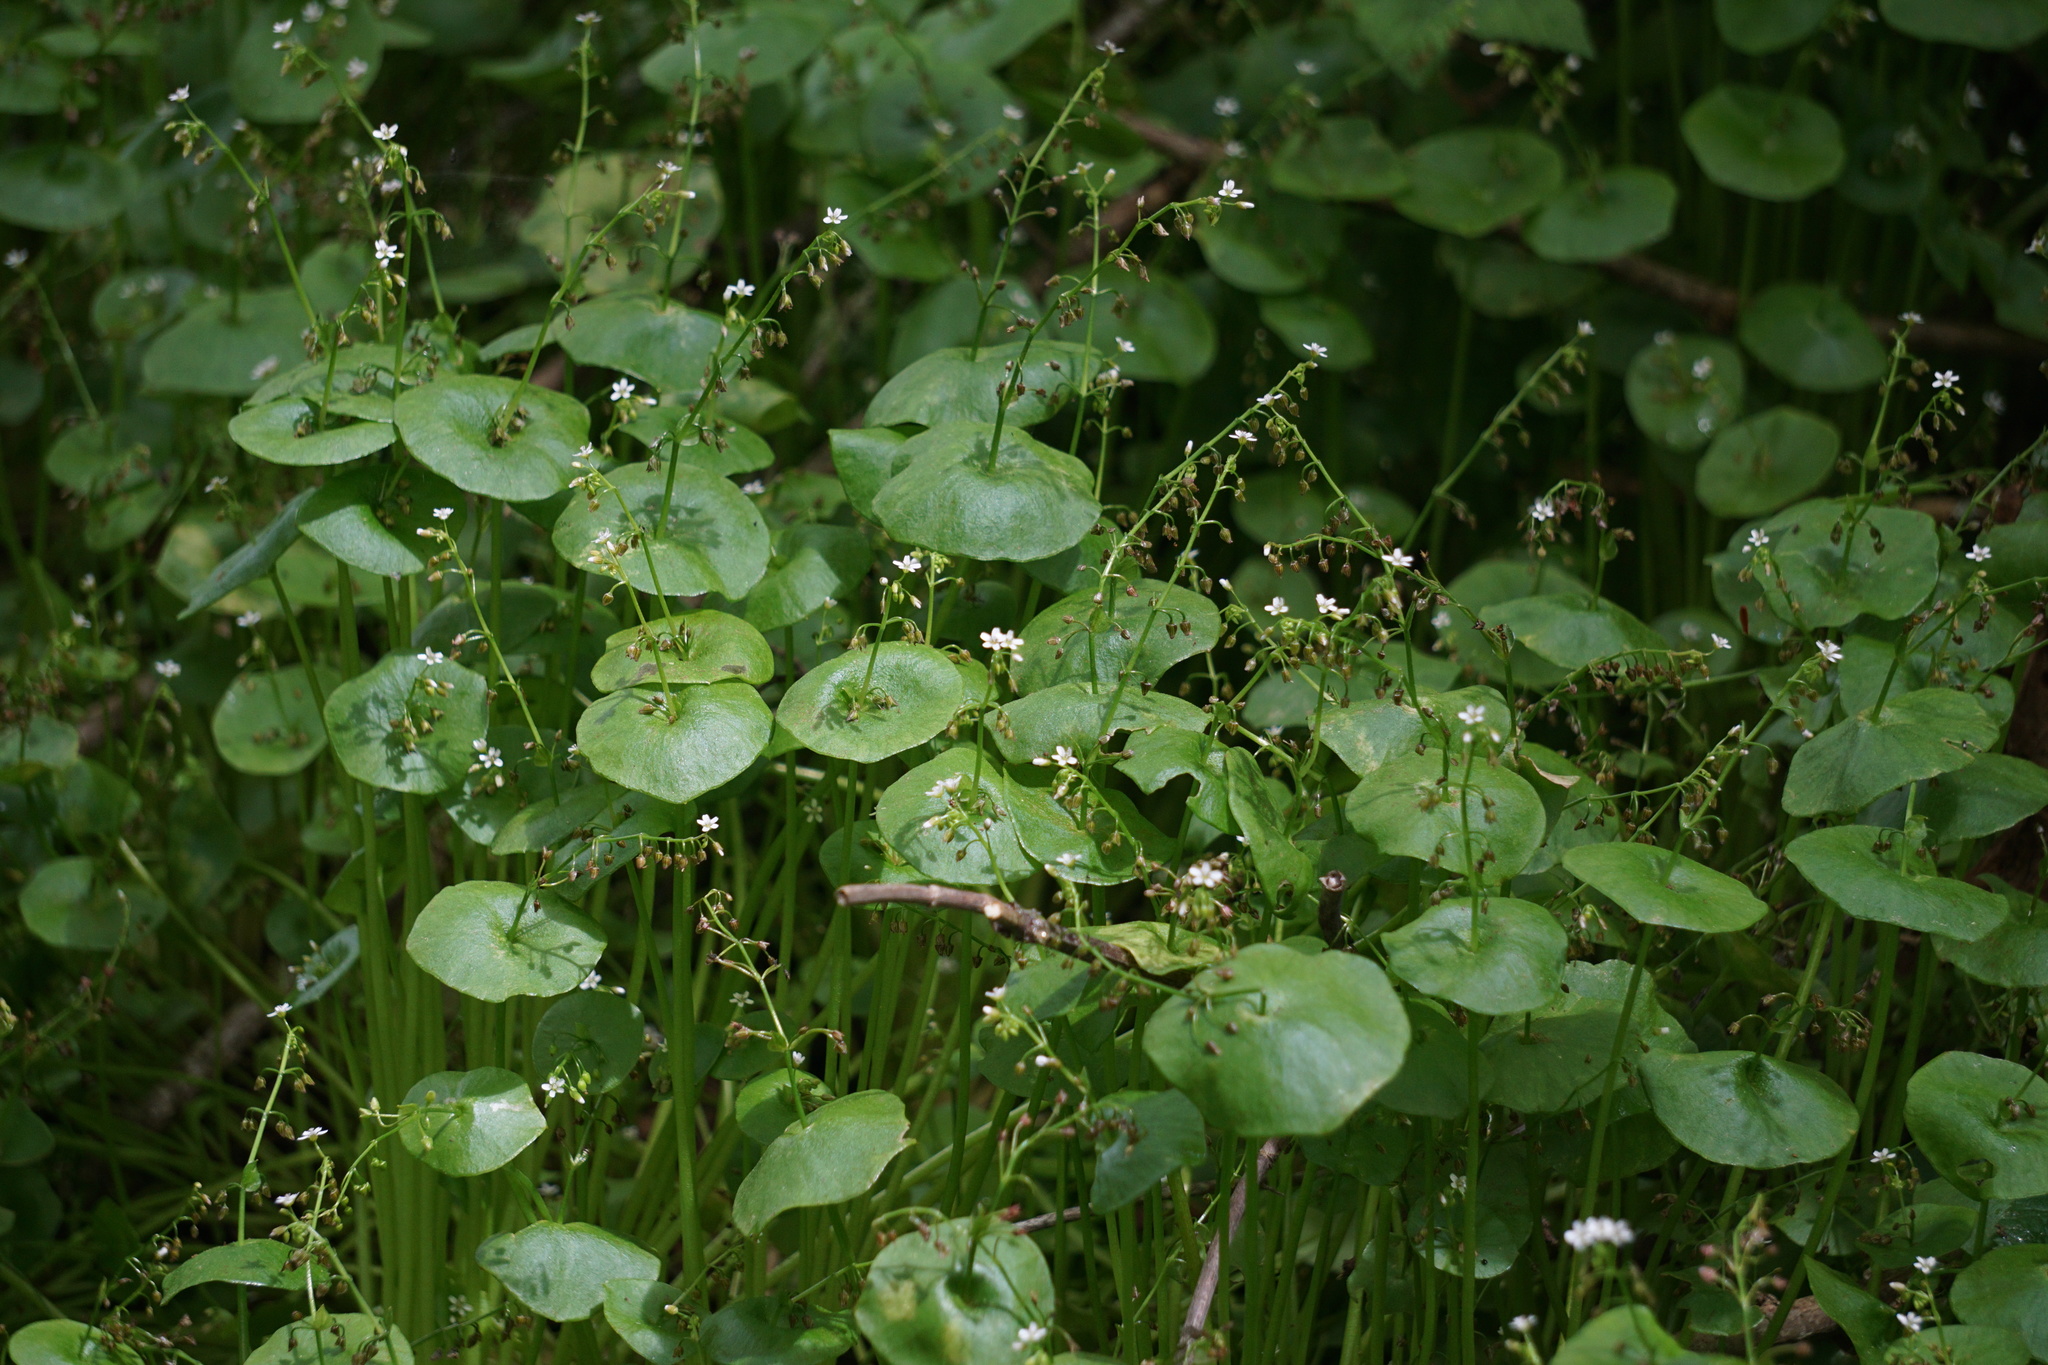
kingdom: Plantae
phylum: Tracheophyta
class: Magnoliopsida
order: Caryophyllales
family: Montiaceae
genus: Claytonia
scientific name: Claytonia perfoliata
